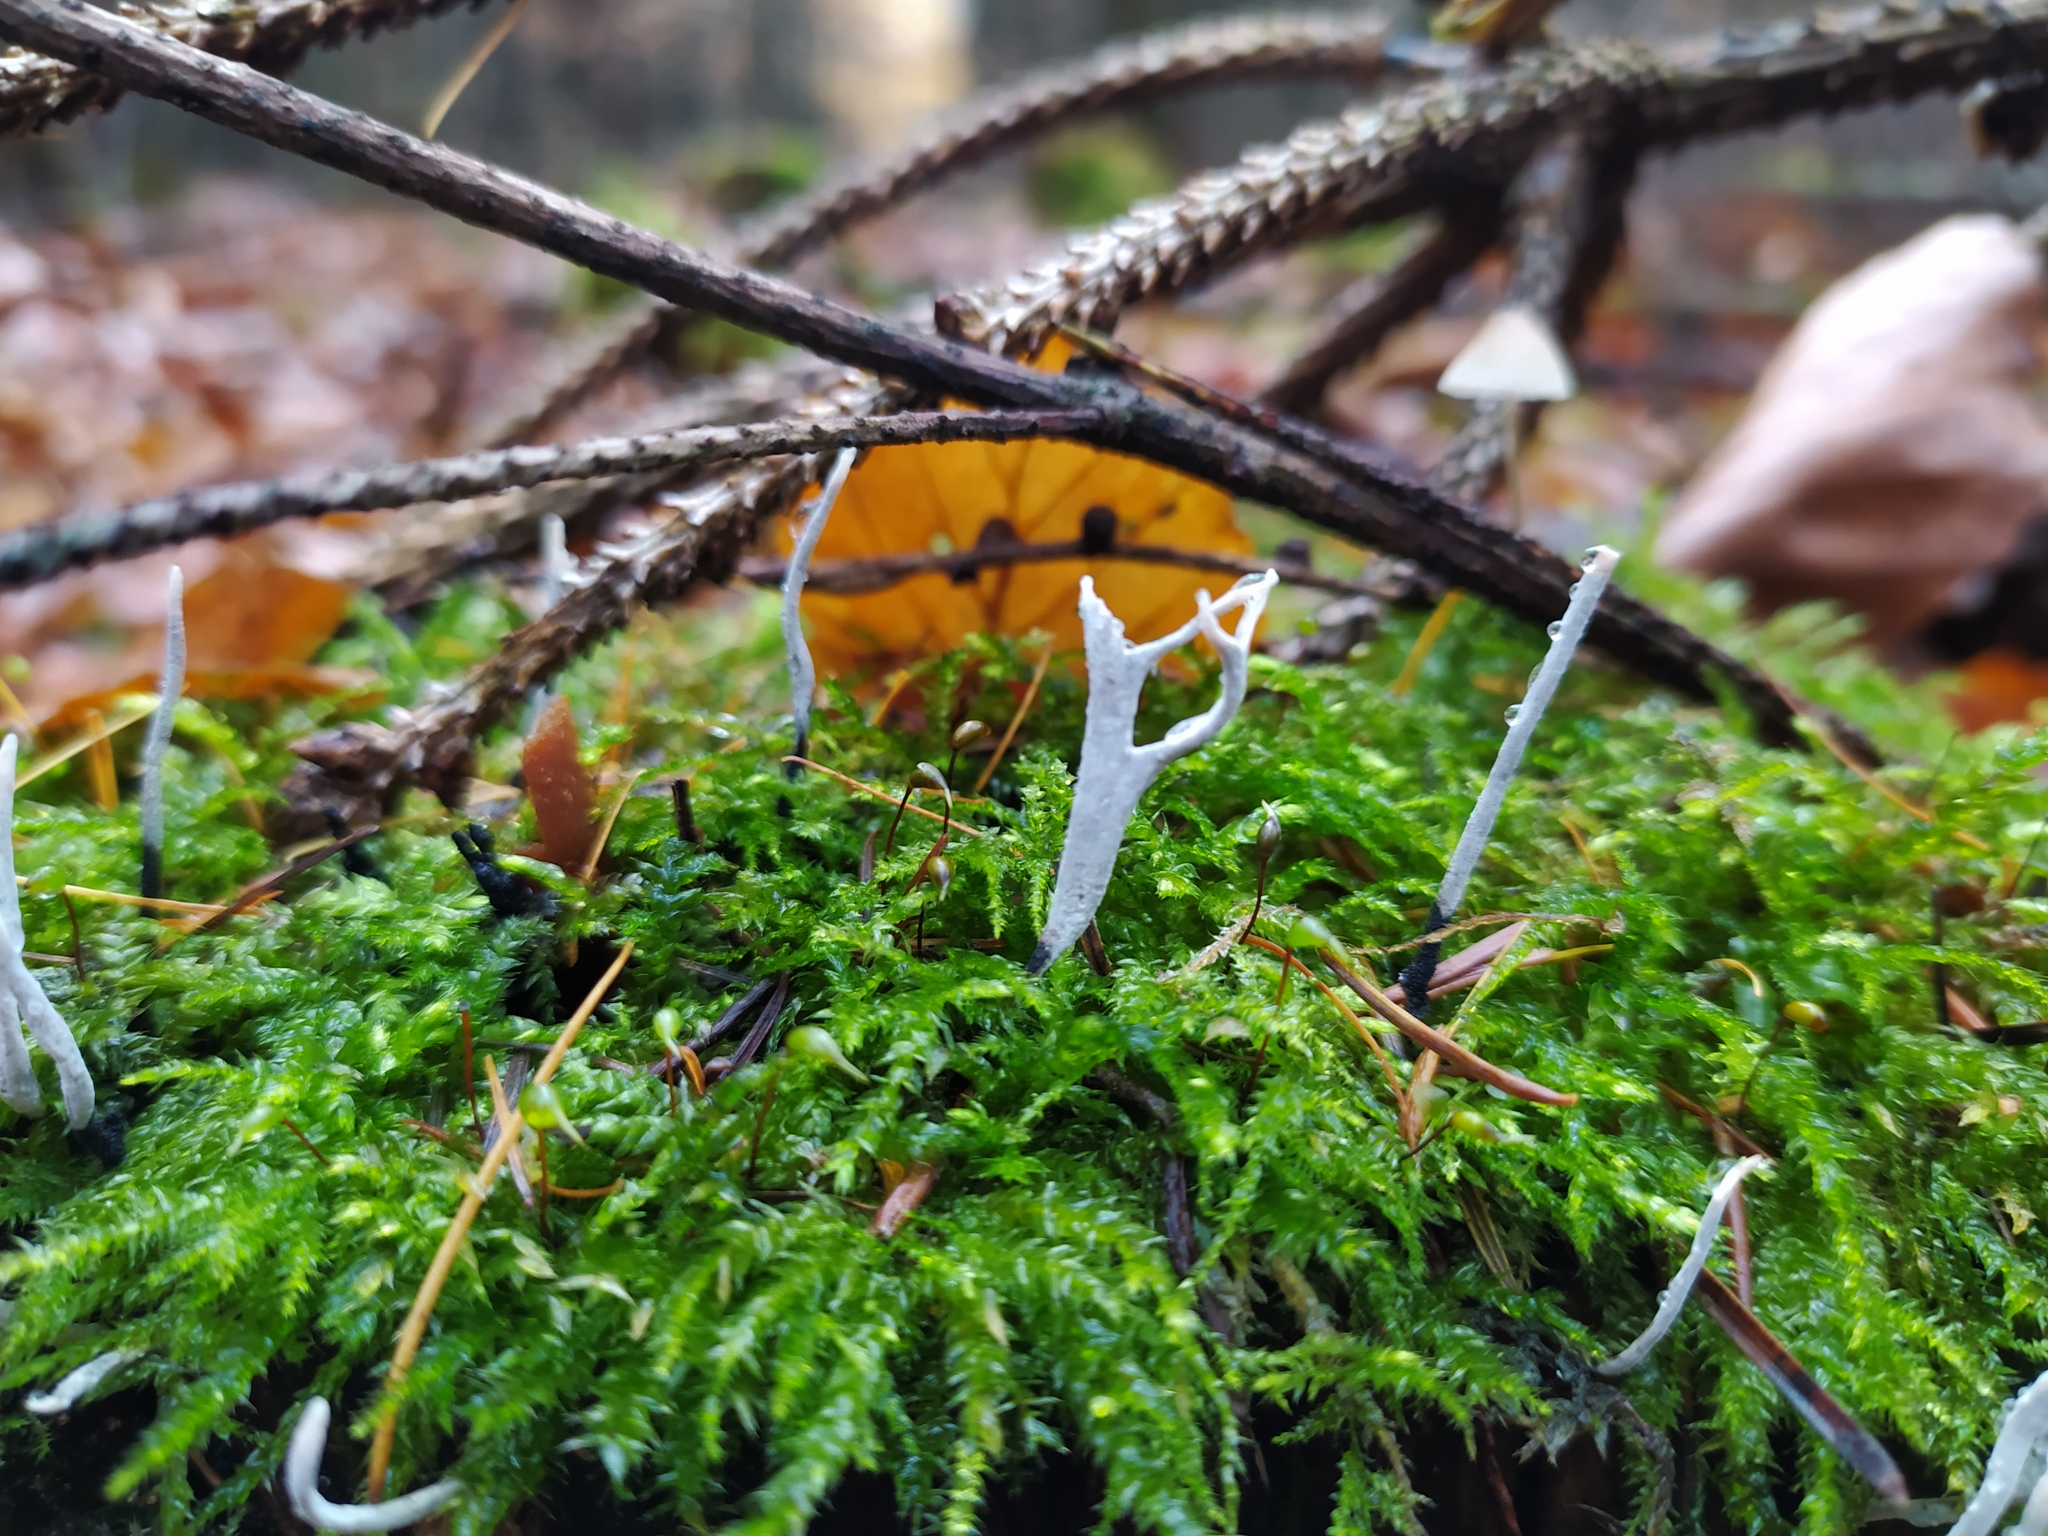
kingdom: Fungi
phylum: Ascomycota
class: Sordariomycetes
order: Xylariales
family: Xylariaceae
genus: Xylaria
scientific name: Xylaria hypoxylon
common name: Candle-snuff fungus
